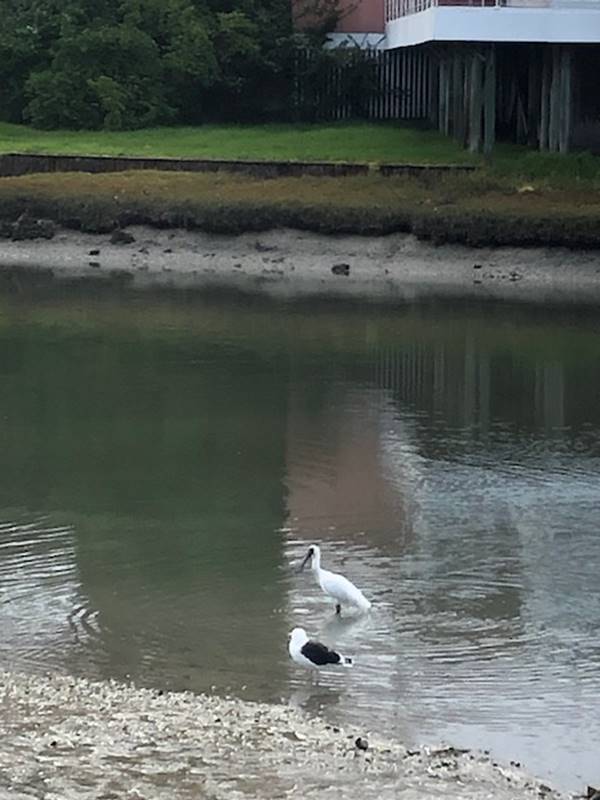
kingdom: Animalia
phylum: Chordata
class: Aves
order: Pelecaniformes
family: Threskiornithidae
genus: Platalea
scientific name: Platalea regia
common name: Royal spoonbill
